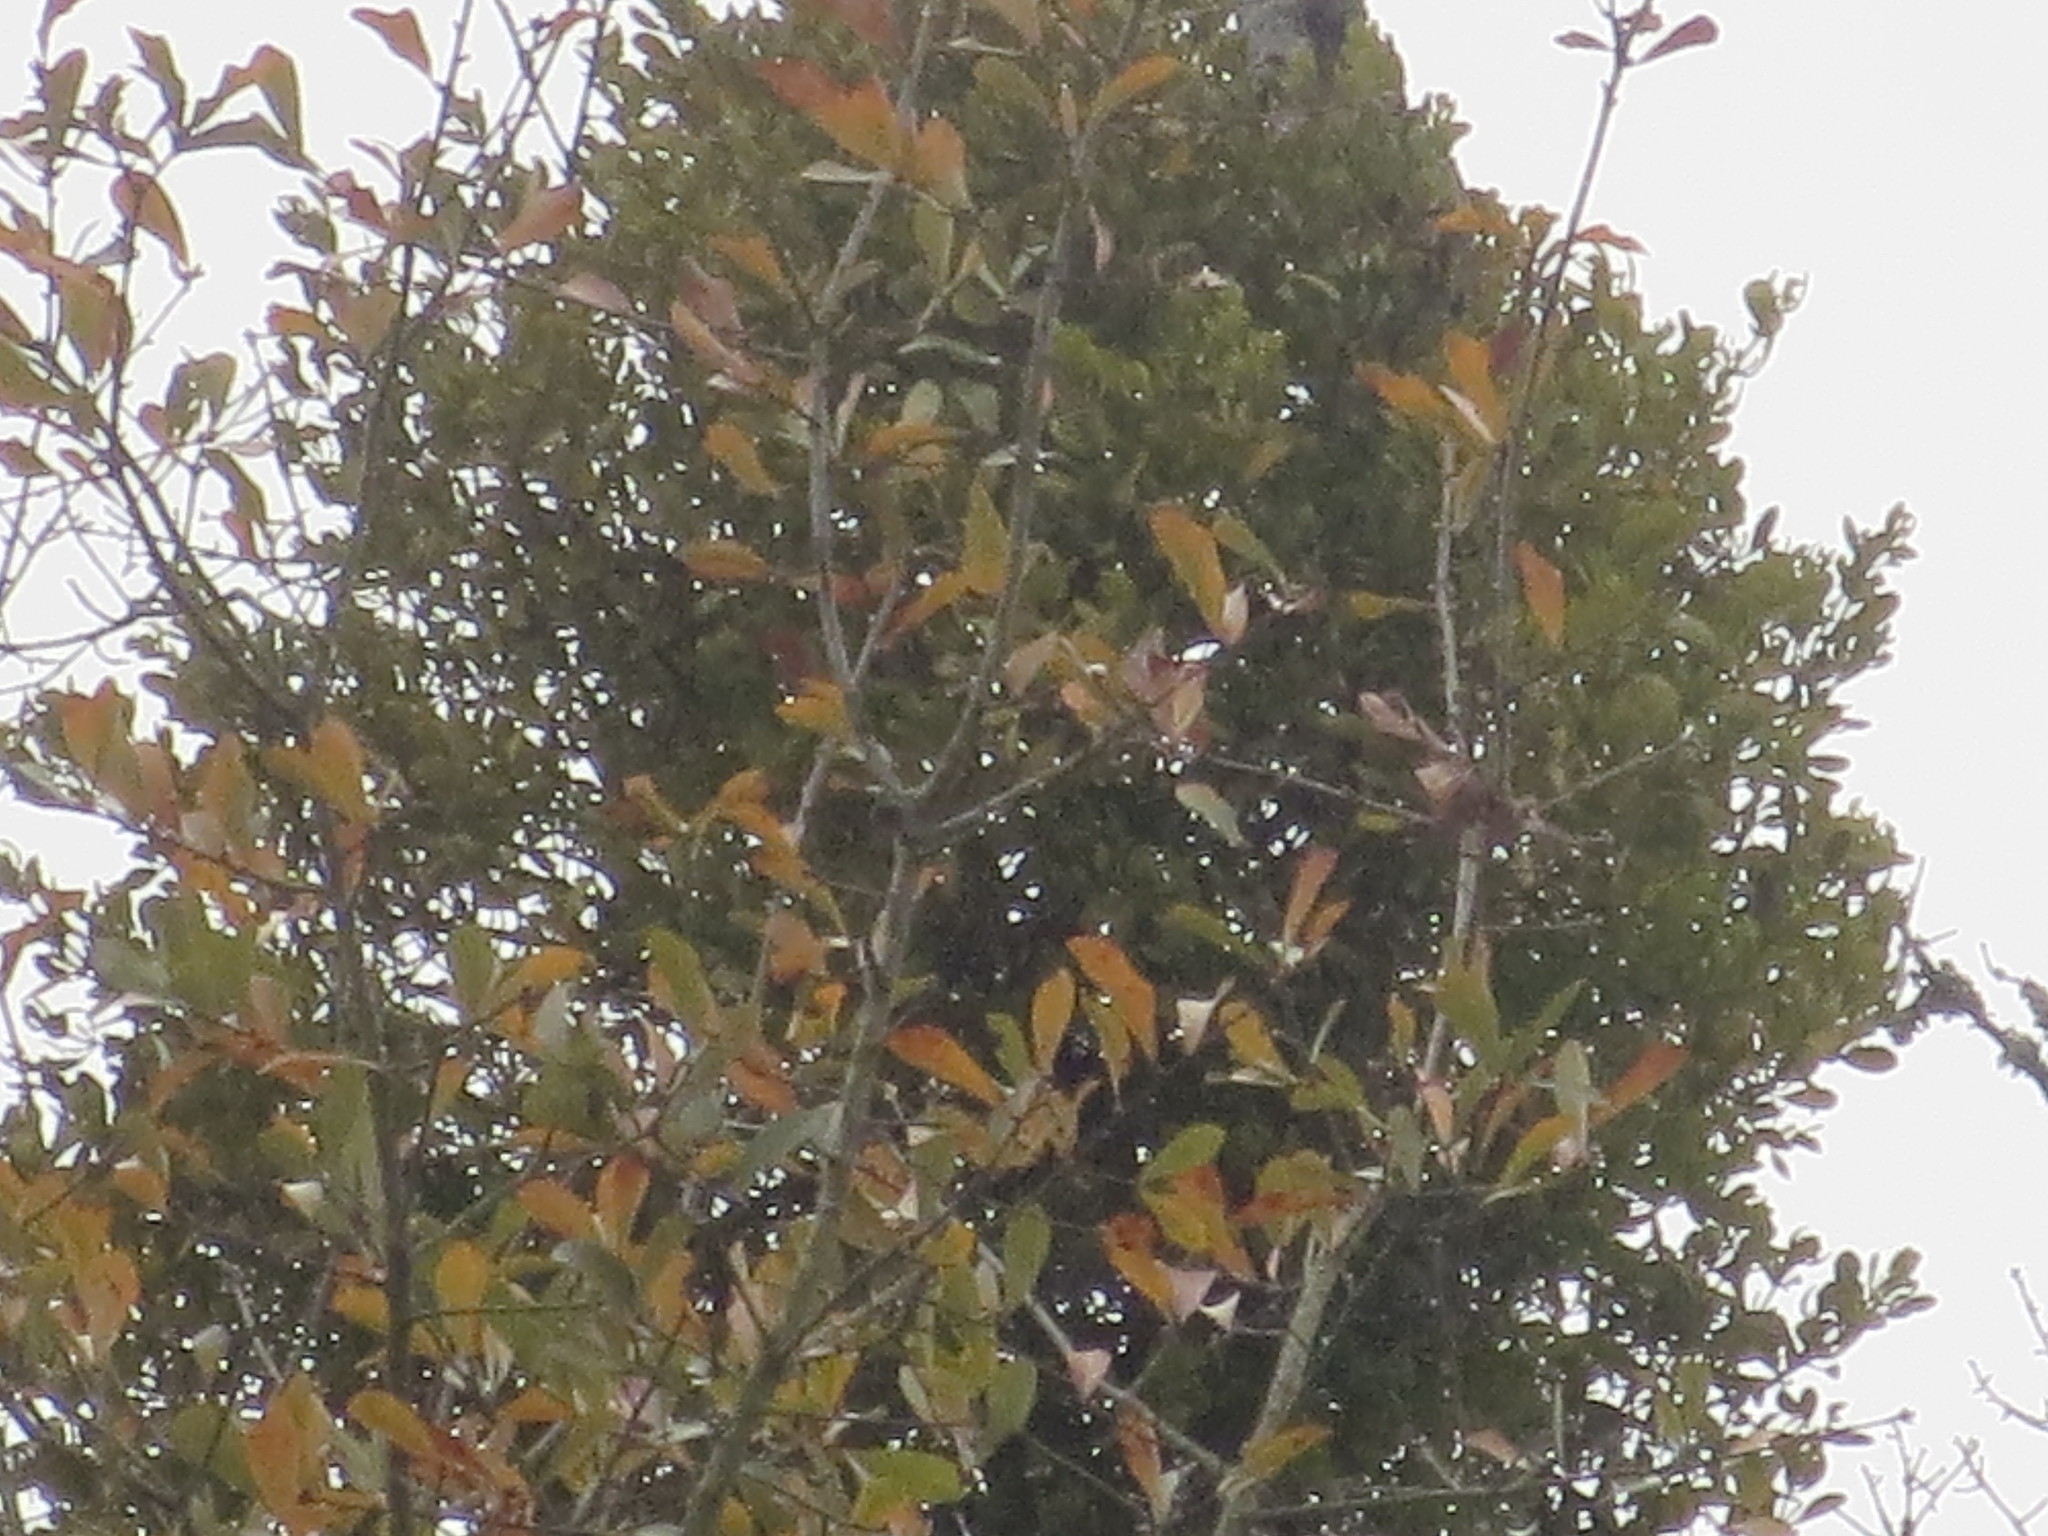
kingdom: Plantae
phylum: Tracheophyta
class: Magnoliopsida
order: Santalales
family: Viscaceae
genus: Phoradendron
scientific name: Phoradendron leucarpum
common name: Pacific mistletoe
